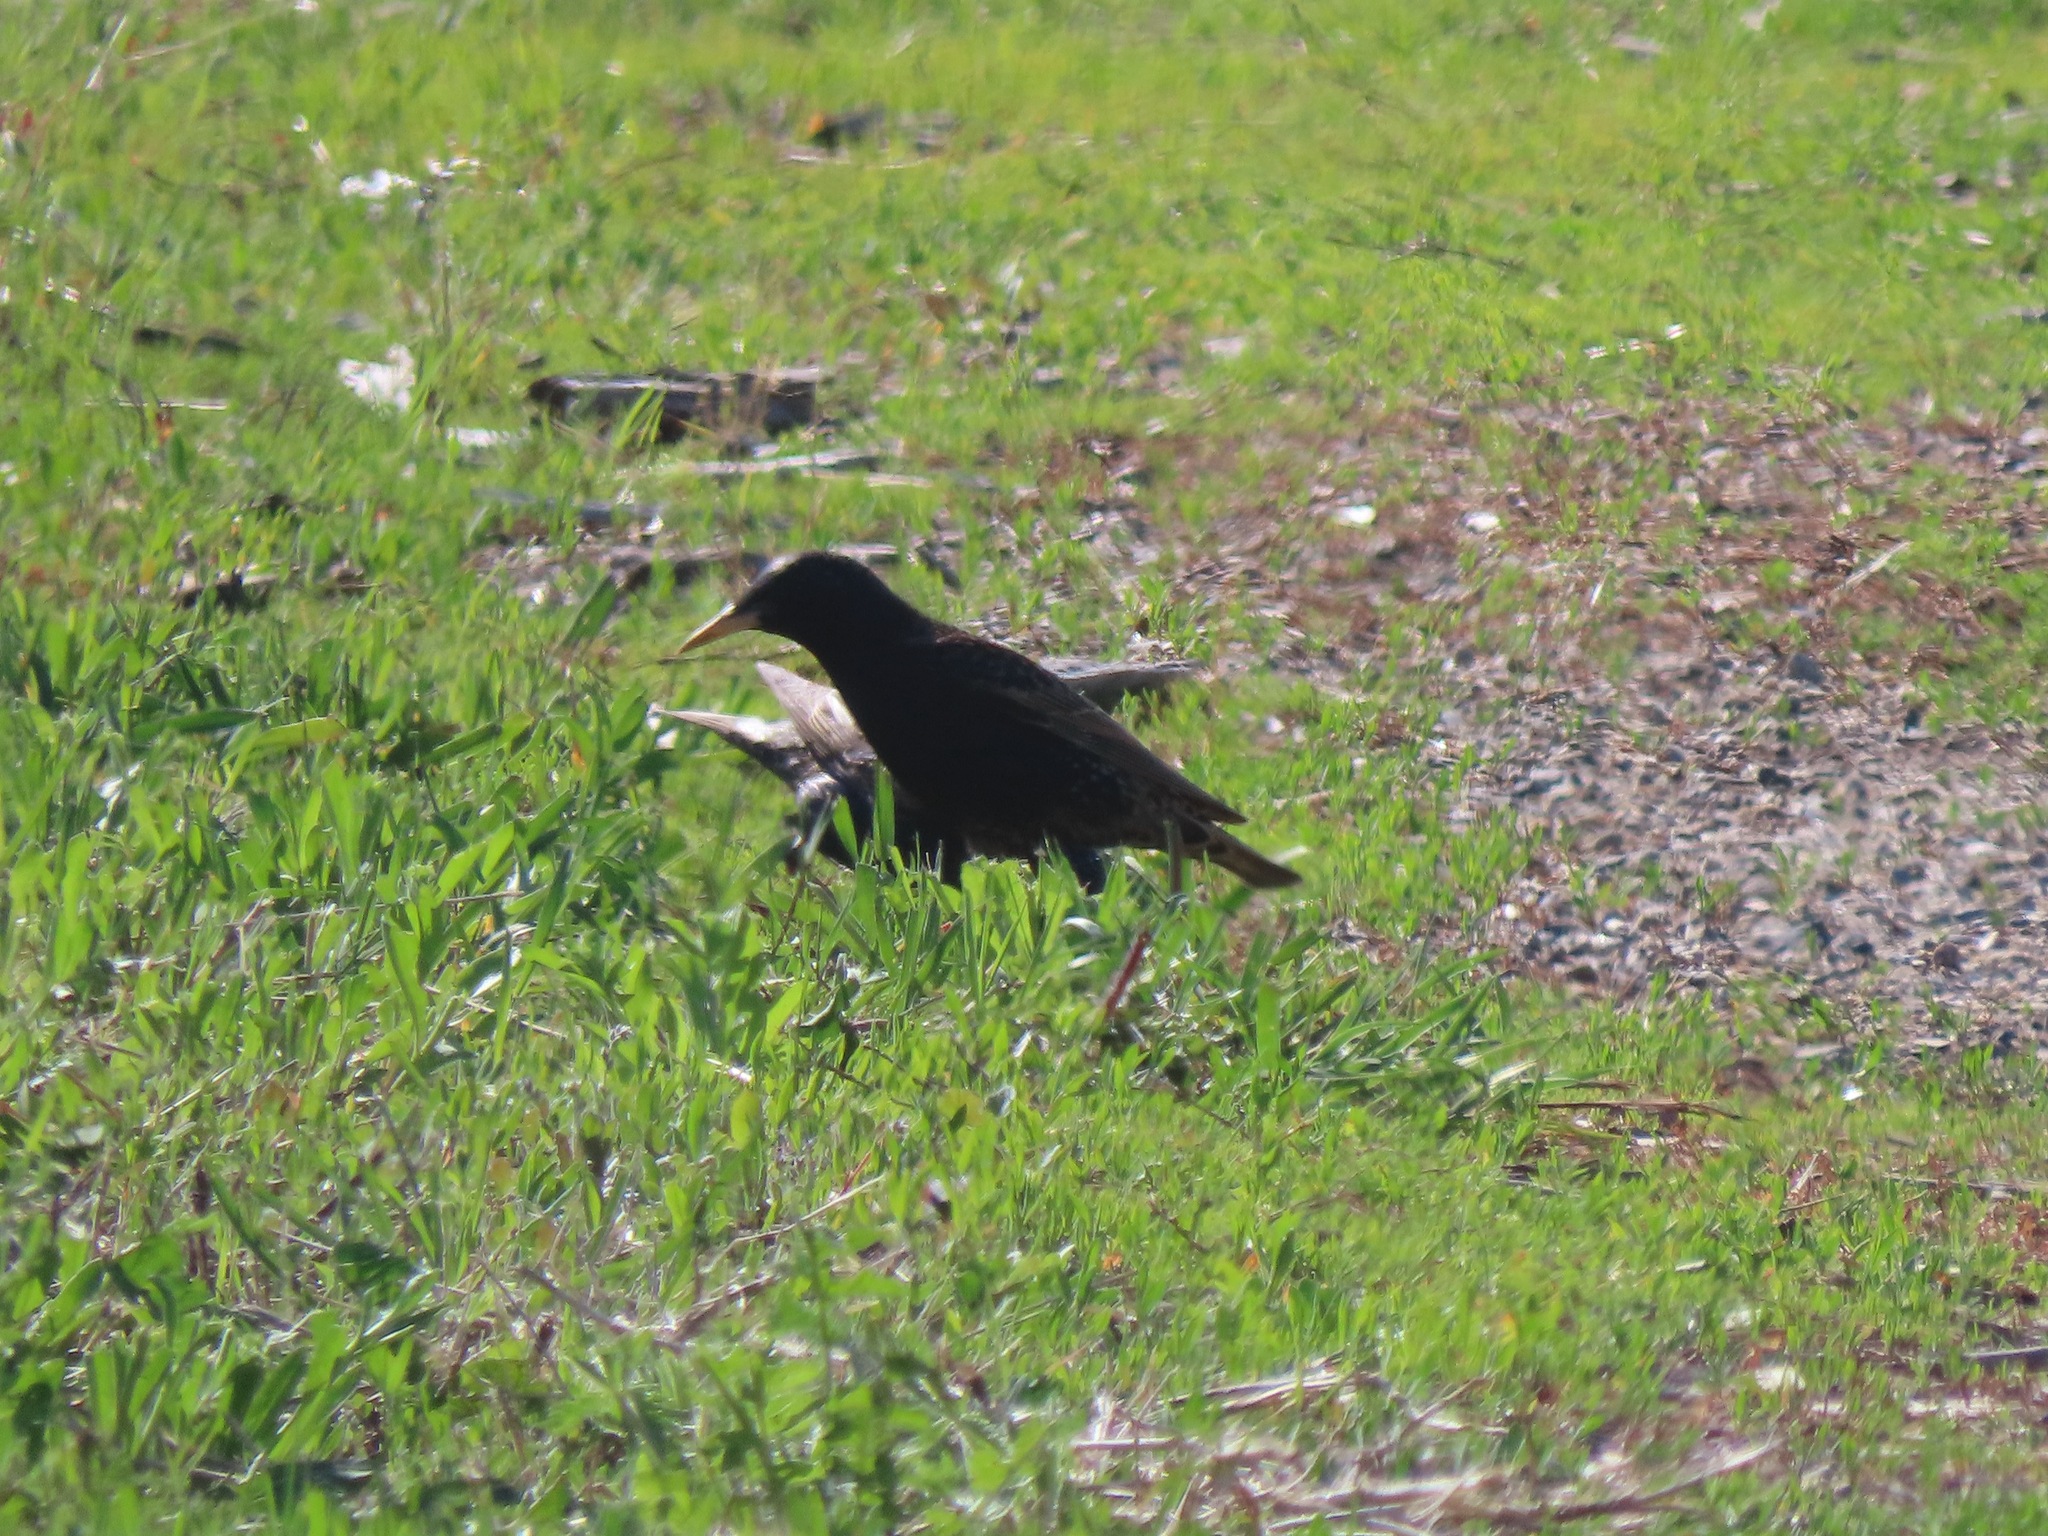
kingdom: Animalia
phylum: Chordata
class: Aves
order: Passeriformes
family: Sturnidae
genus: Sturnus
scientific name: Sturnus vulgaris
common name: Common starling
